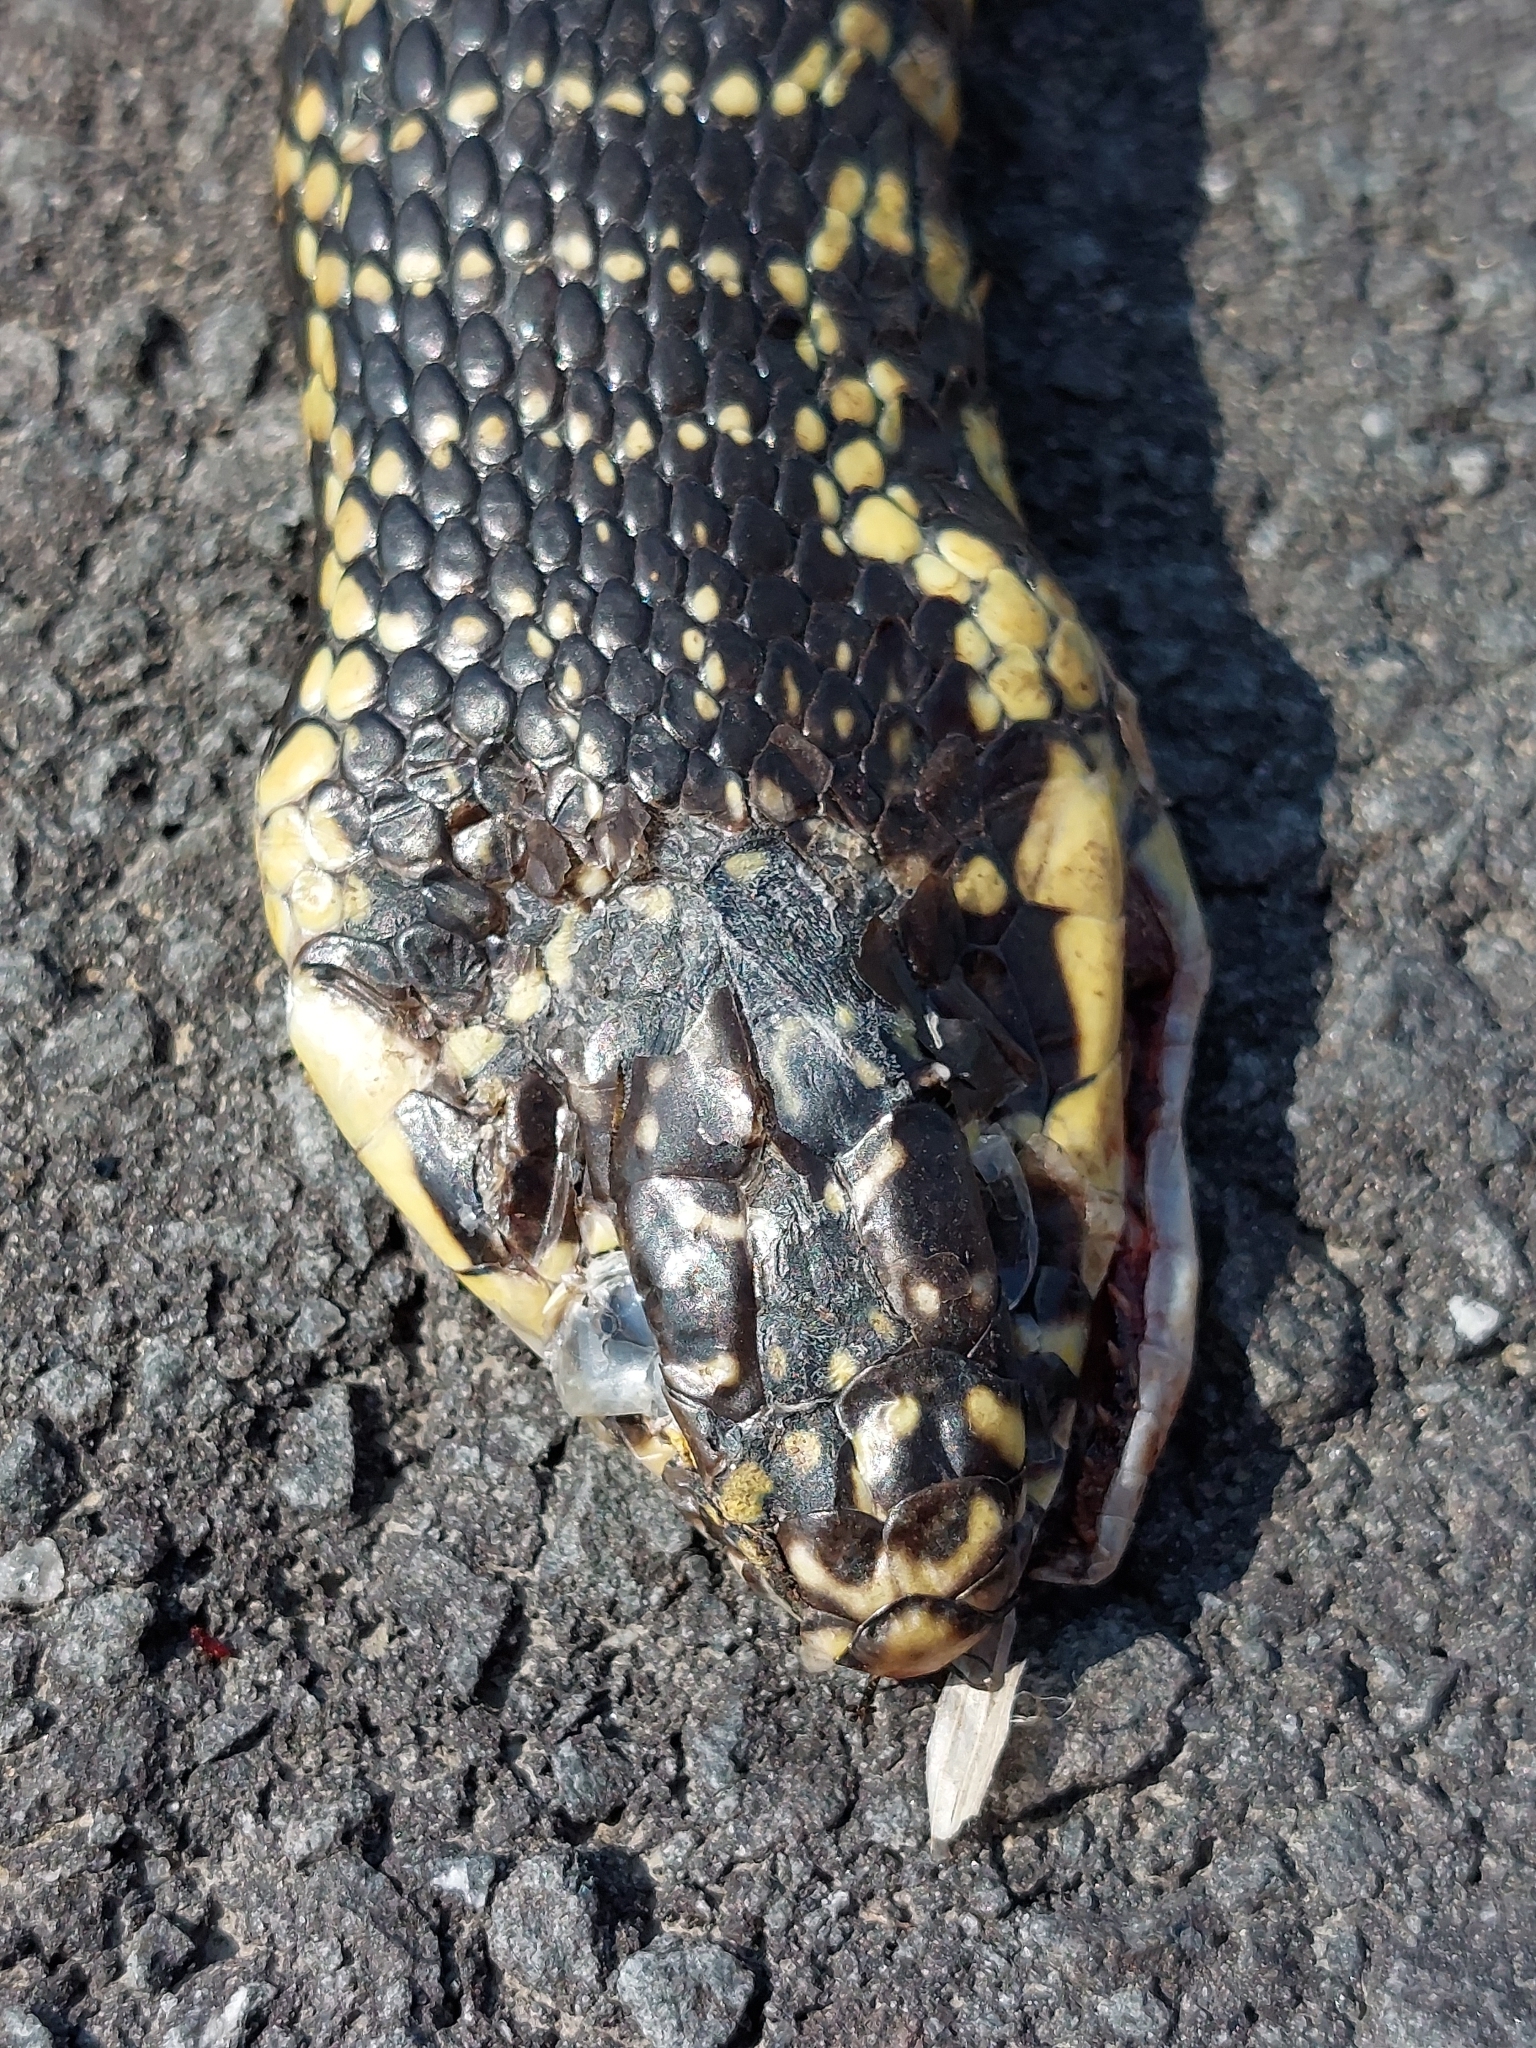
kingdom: Animalia
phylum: Chordata
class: Squamata
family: Colubridae
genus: Hierophis
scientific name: Hierophis viridiflavus
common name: Green whip snake
